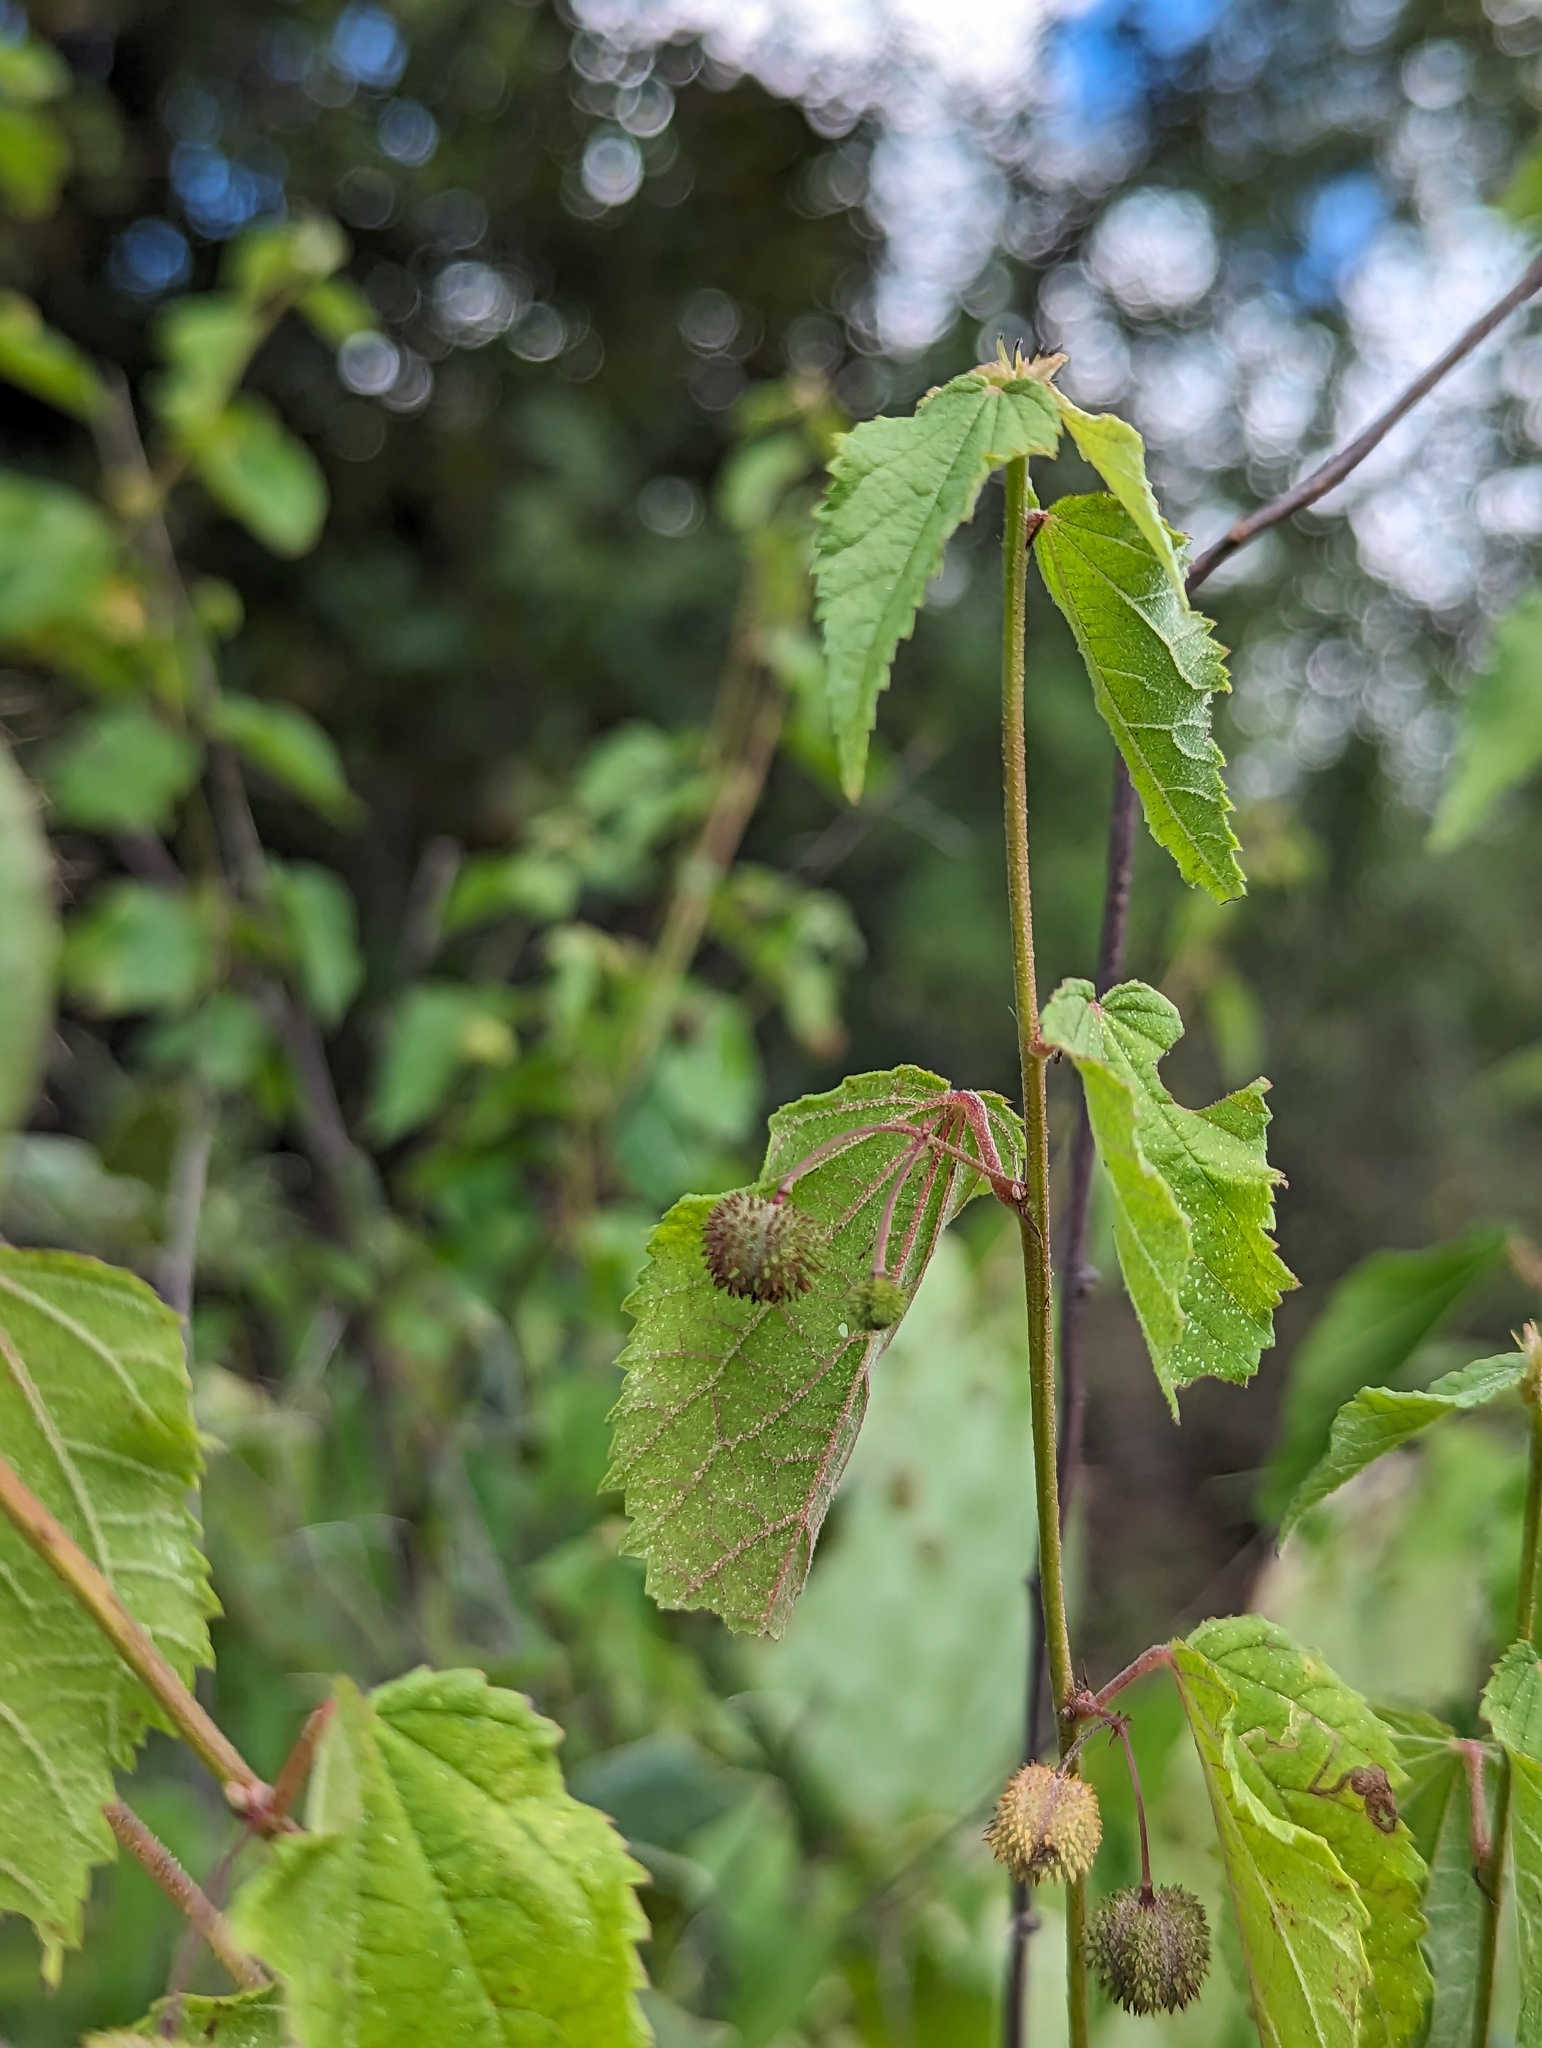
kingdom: Plantae
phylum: Tracheophyta
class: Magnoliopsida
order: Malvales
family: Malvaceae
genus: Ayenia
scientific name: Ayenia jaliscana
